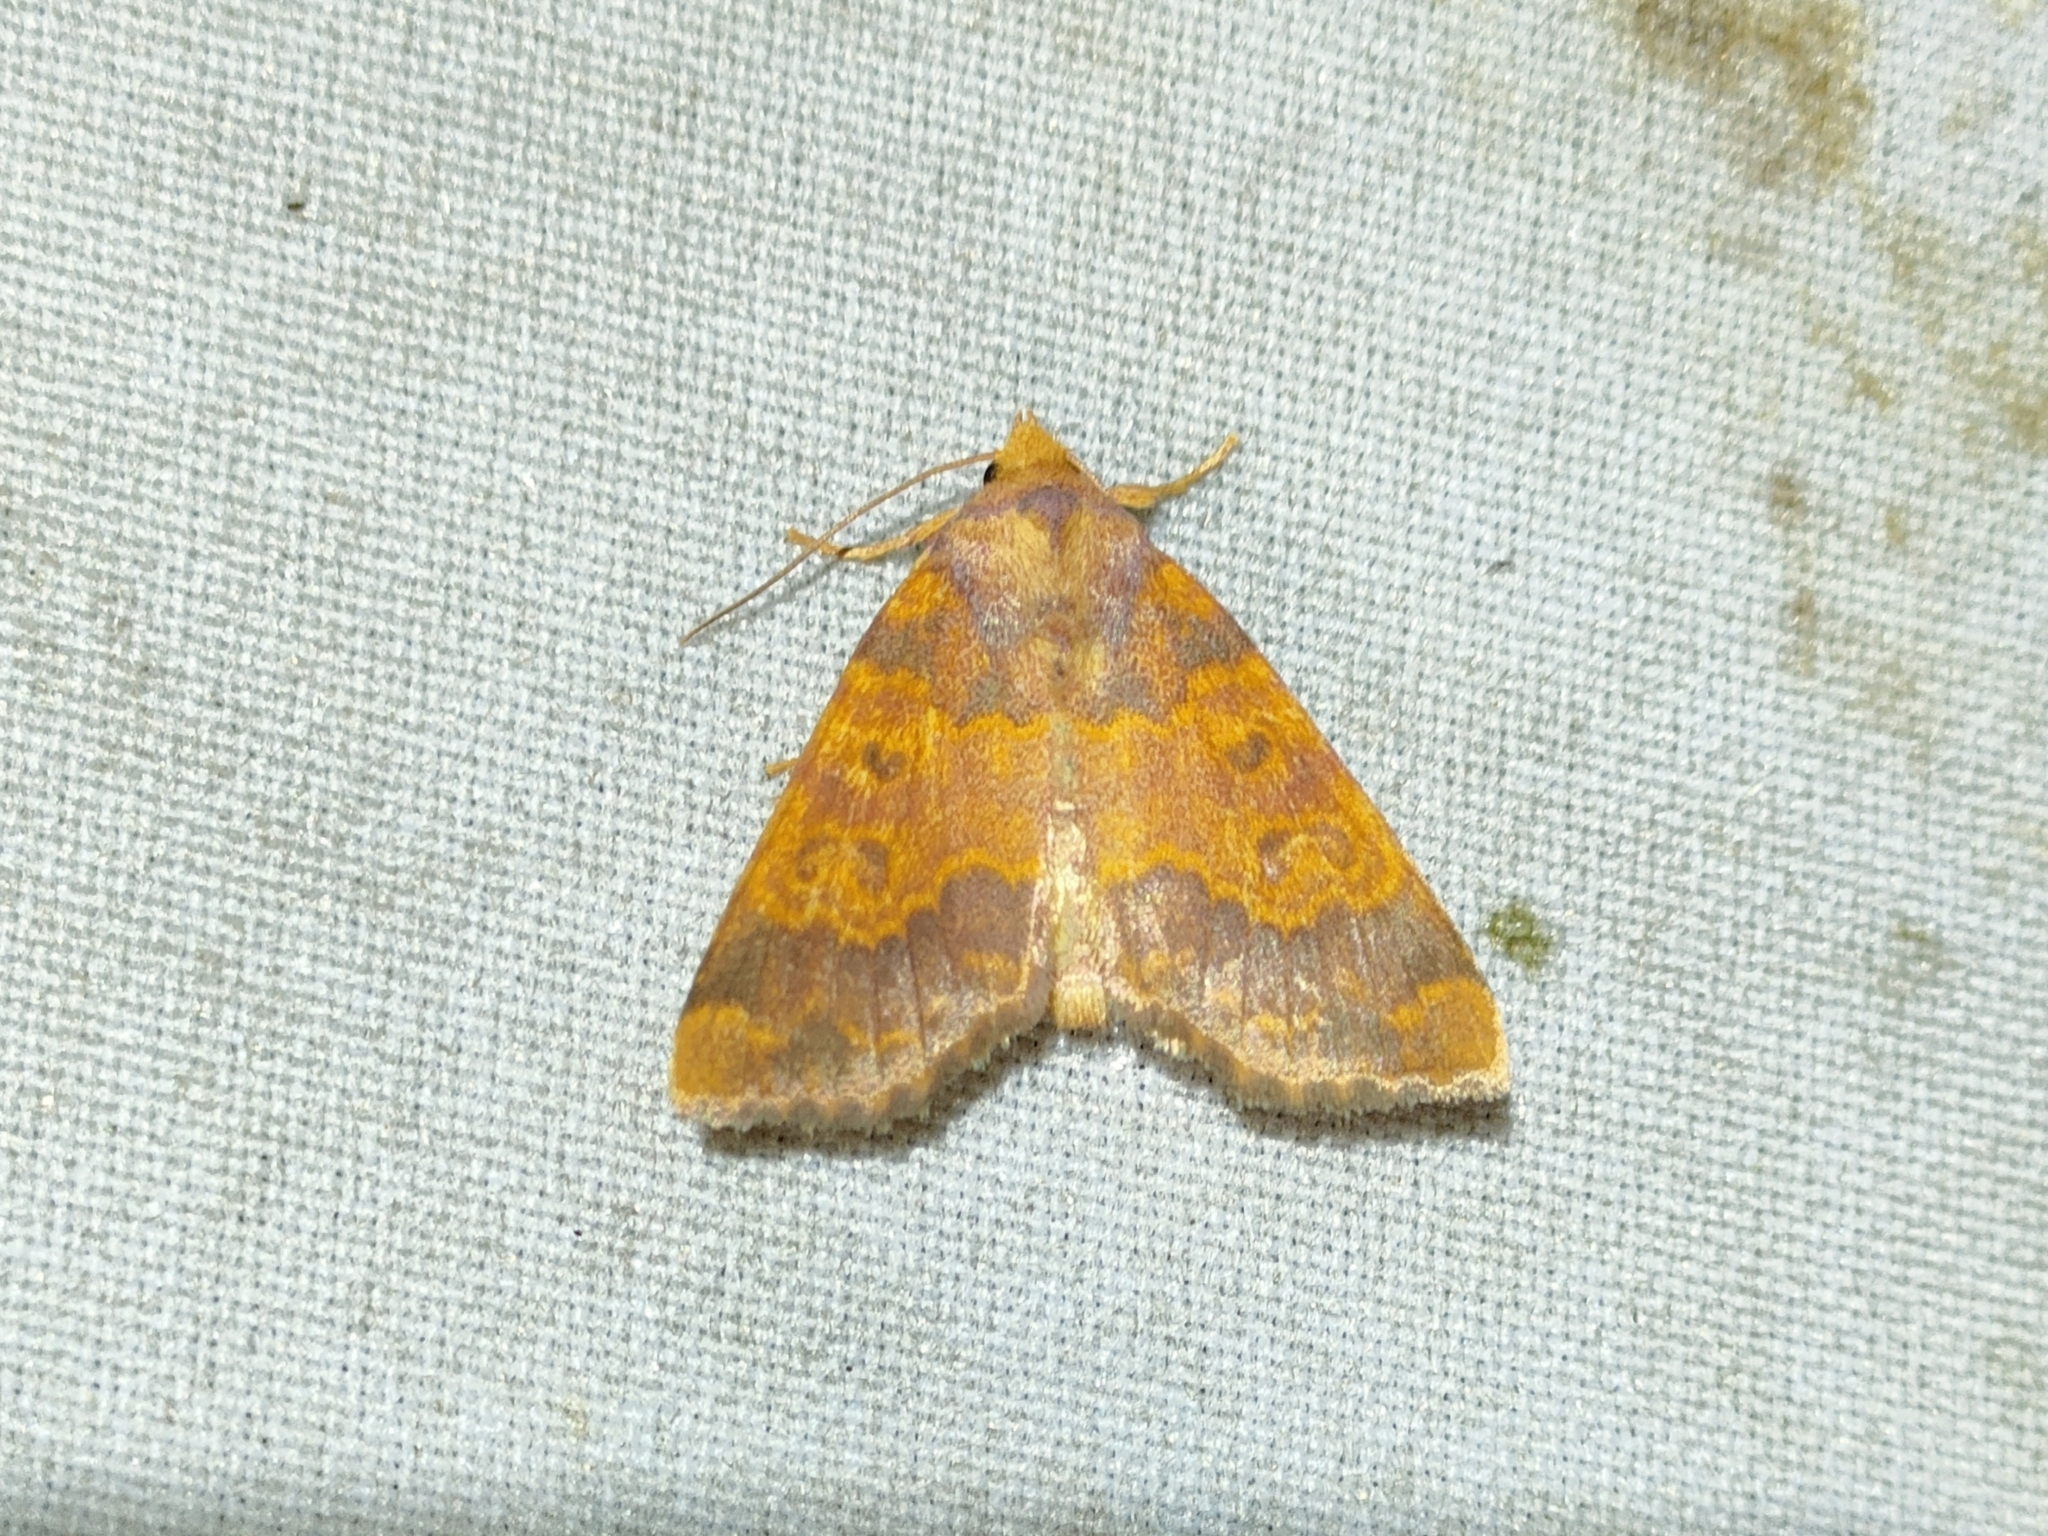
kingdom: Animalia
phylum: Arthropoda
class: Insecta
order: Lepidoptera
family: Noctuidae
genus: Tiliacea
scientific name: Tiliacea aurago
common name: Barred sallow
